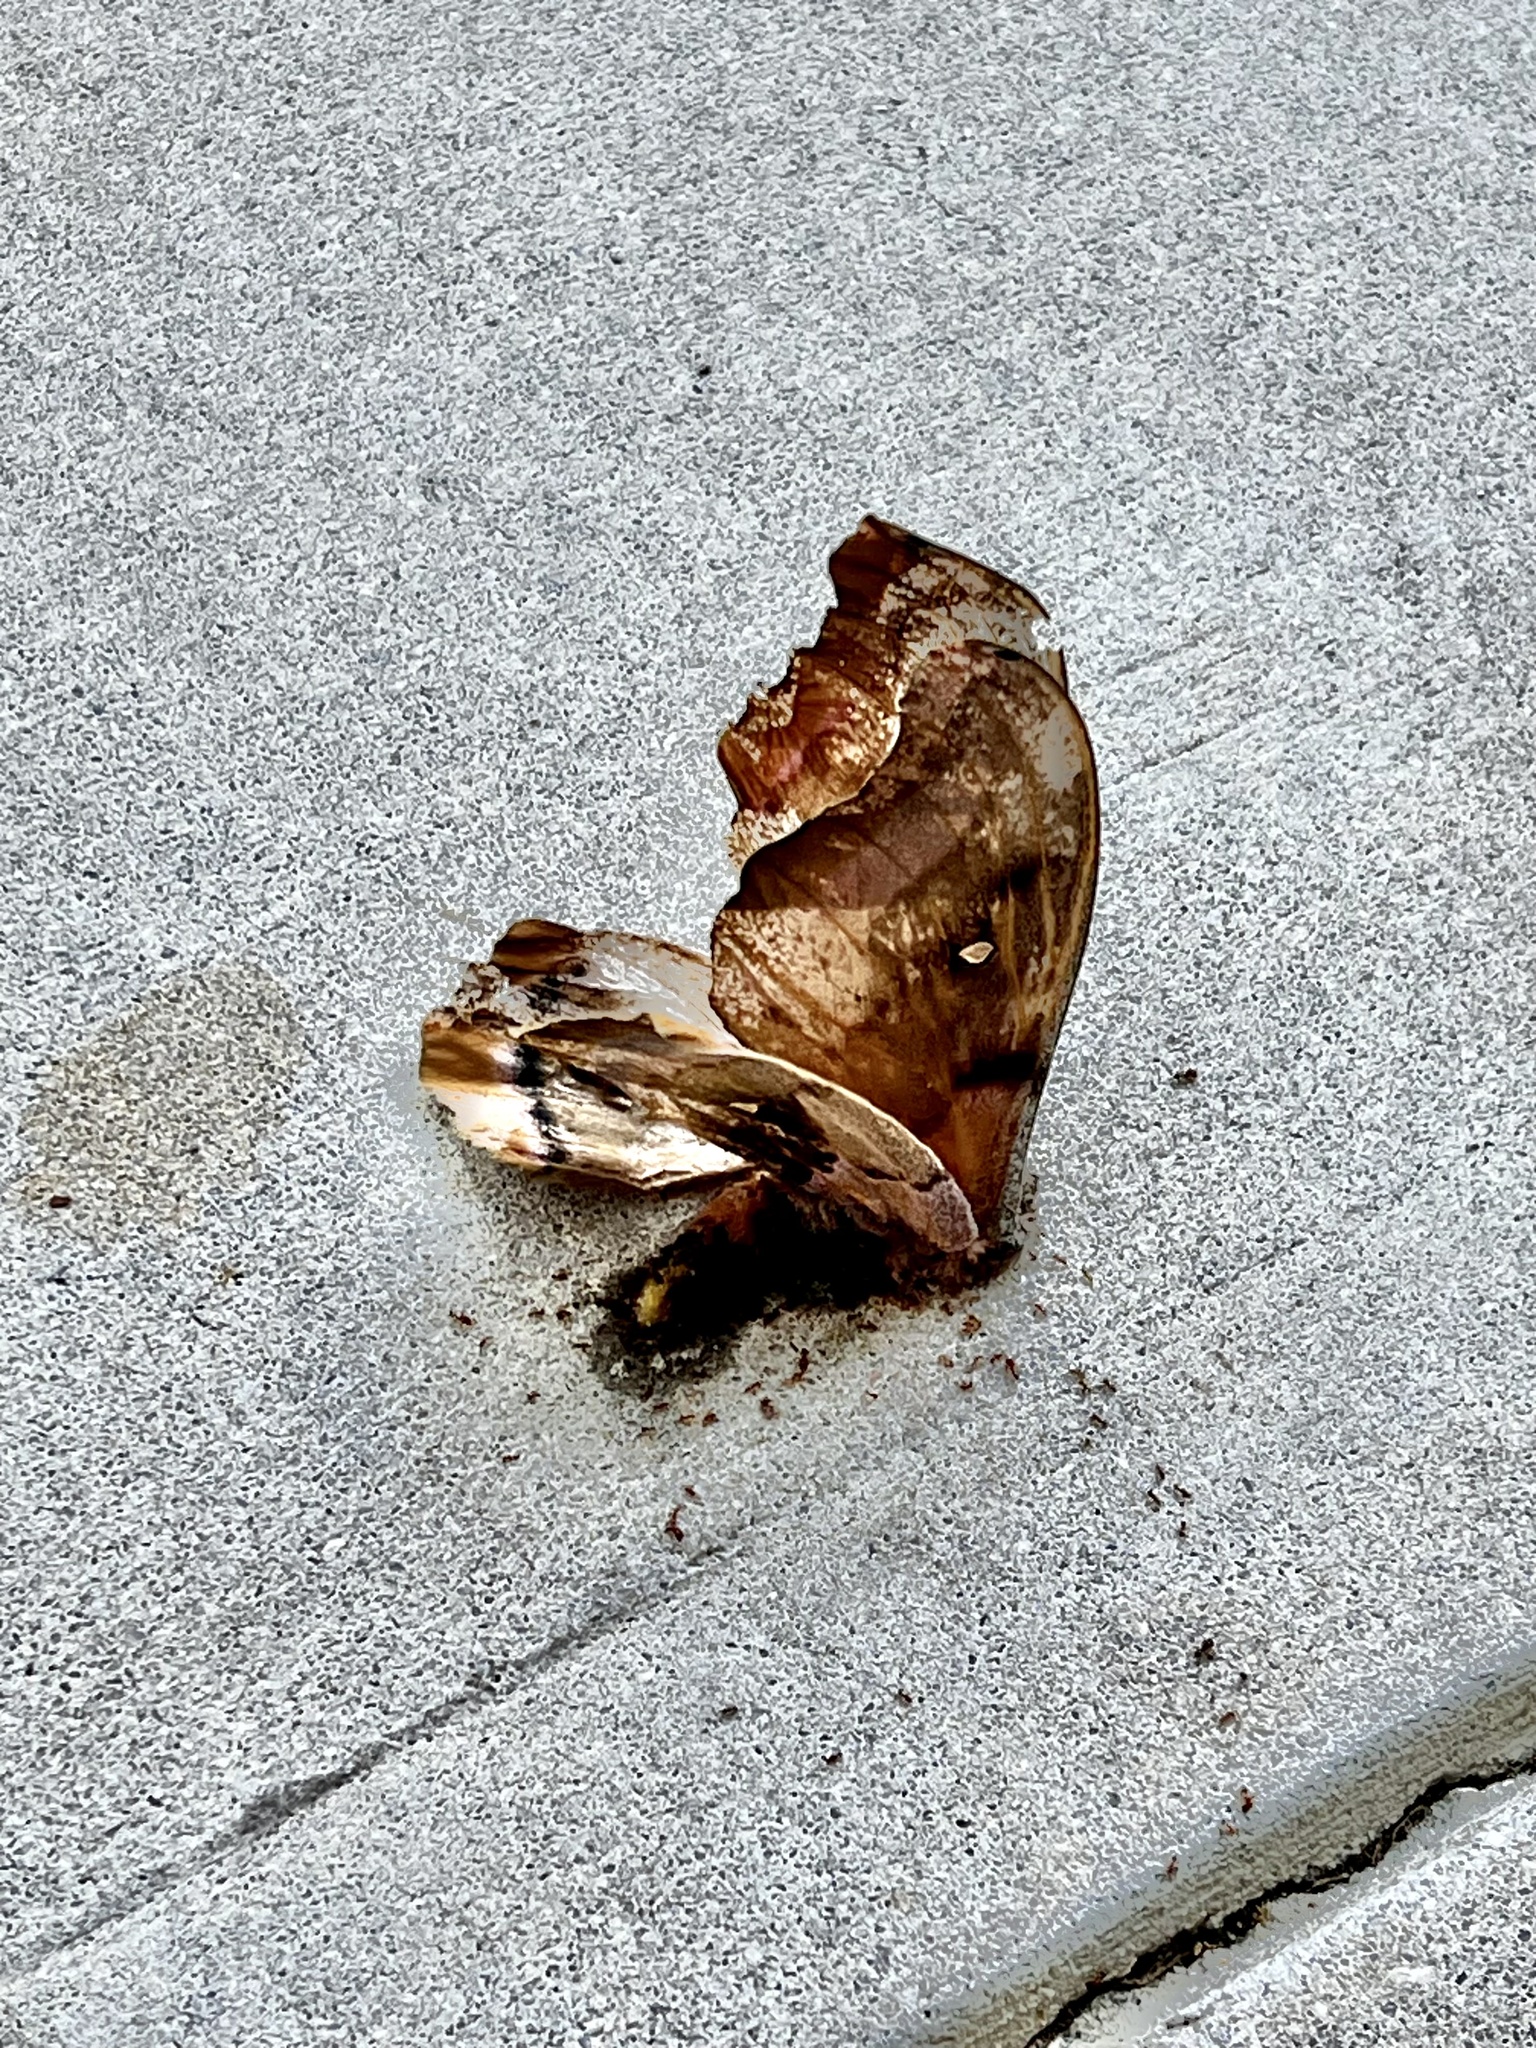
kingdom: Animalia
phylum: Arthropoda
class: Insecta
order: Lepidoptera
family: Saturniidae
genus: Antheraea
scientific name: Antheraea polyphemus
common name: Polyphemus moth
